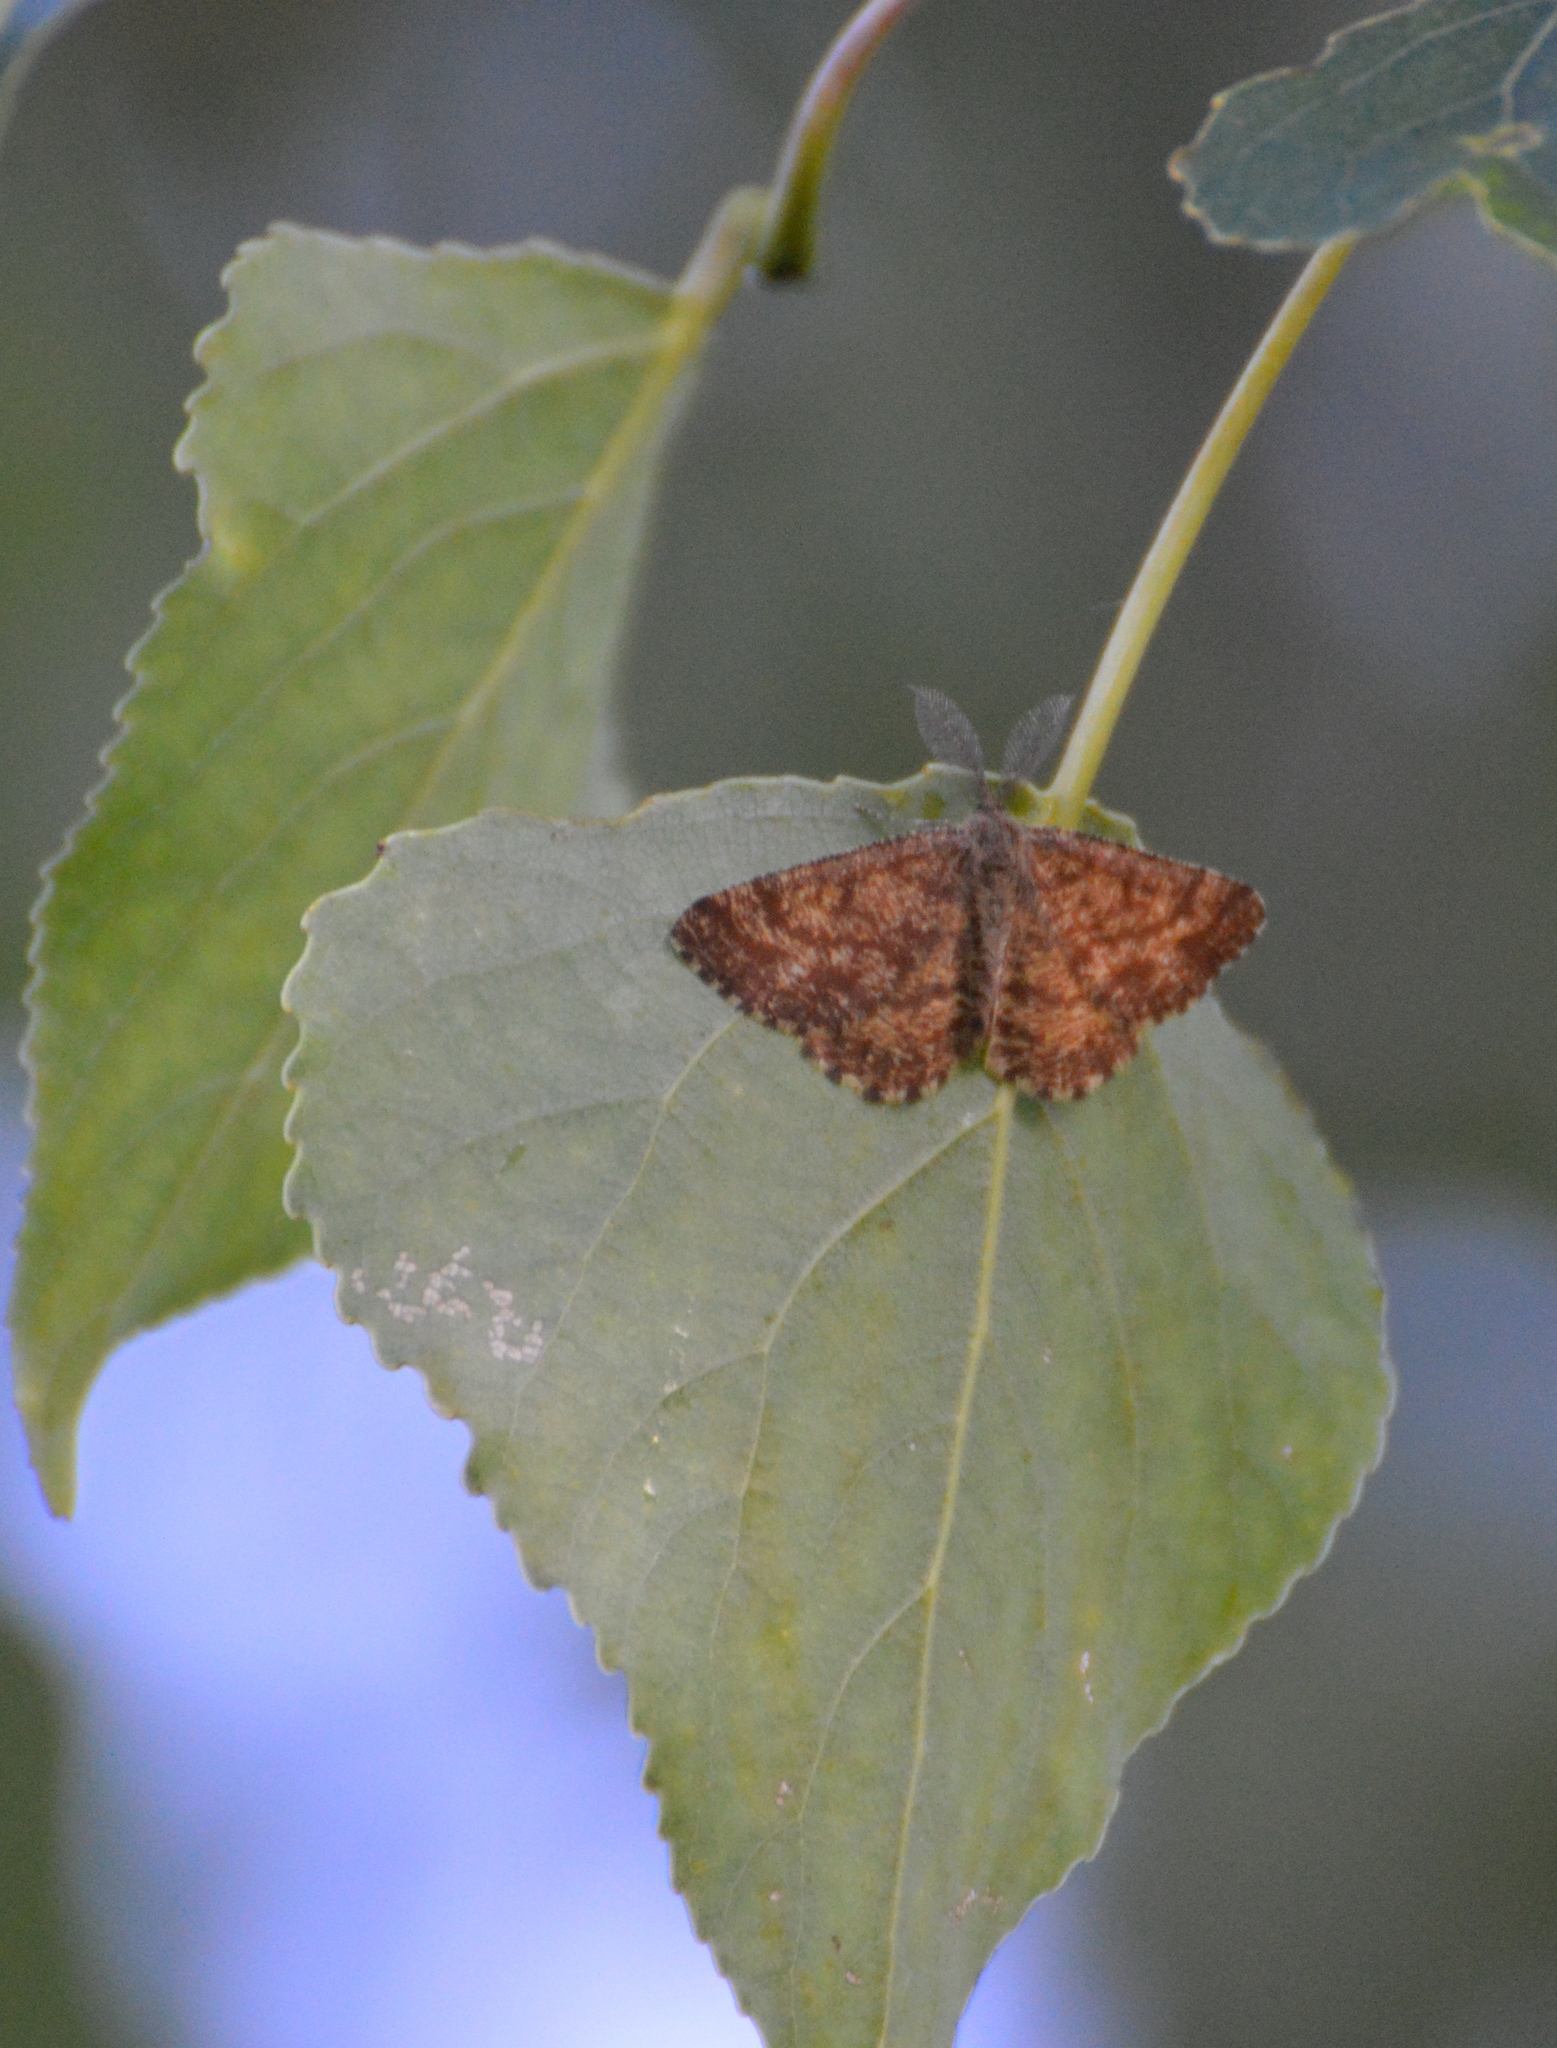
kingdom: Animalia
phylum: Arthropoda
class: Insecta
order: Lepidoptera
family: Geometridae
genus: Ematurga
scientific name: Ematurga atomaria
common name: Common heath
